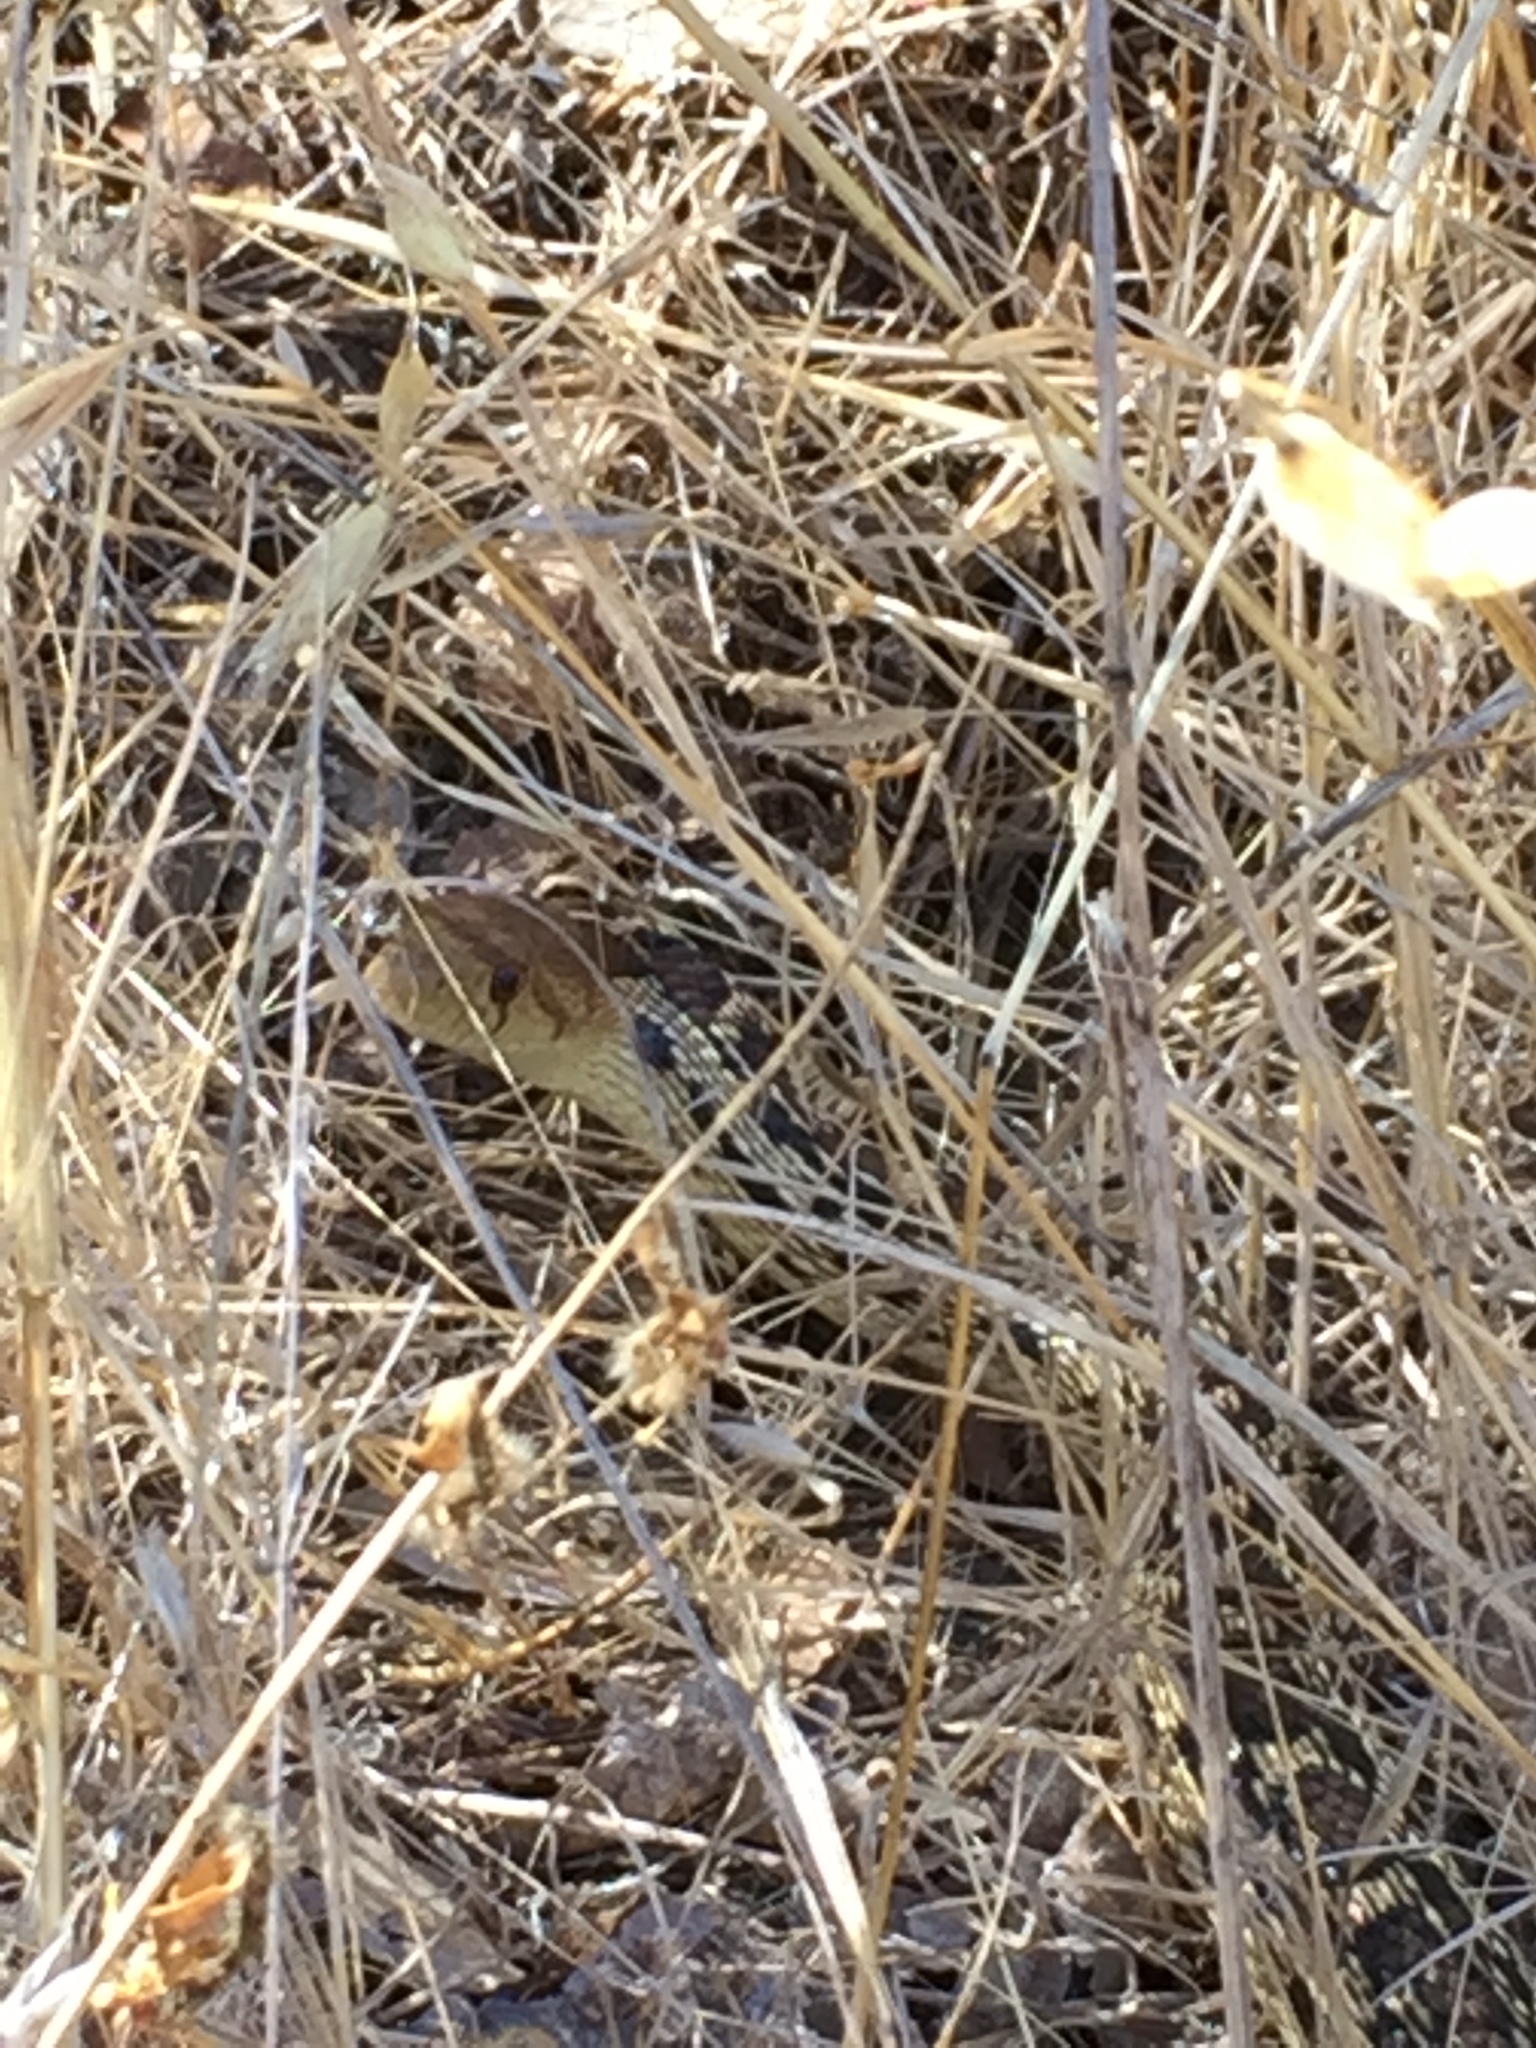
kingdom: Animalia
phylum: Chordata
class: Squamata
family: Colubridae
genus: Pituophis
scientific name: Pituophis catenifer
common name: Gopher snake
